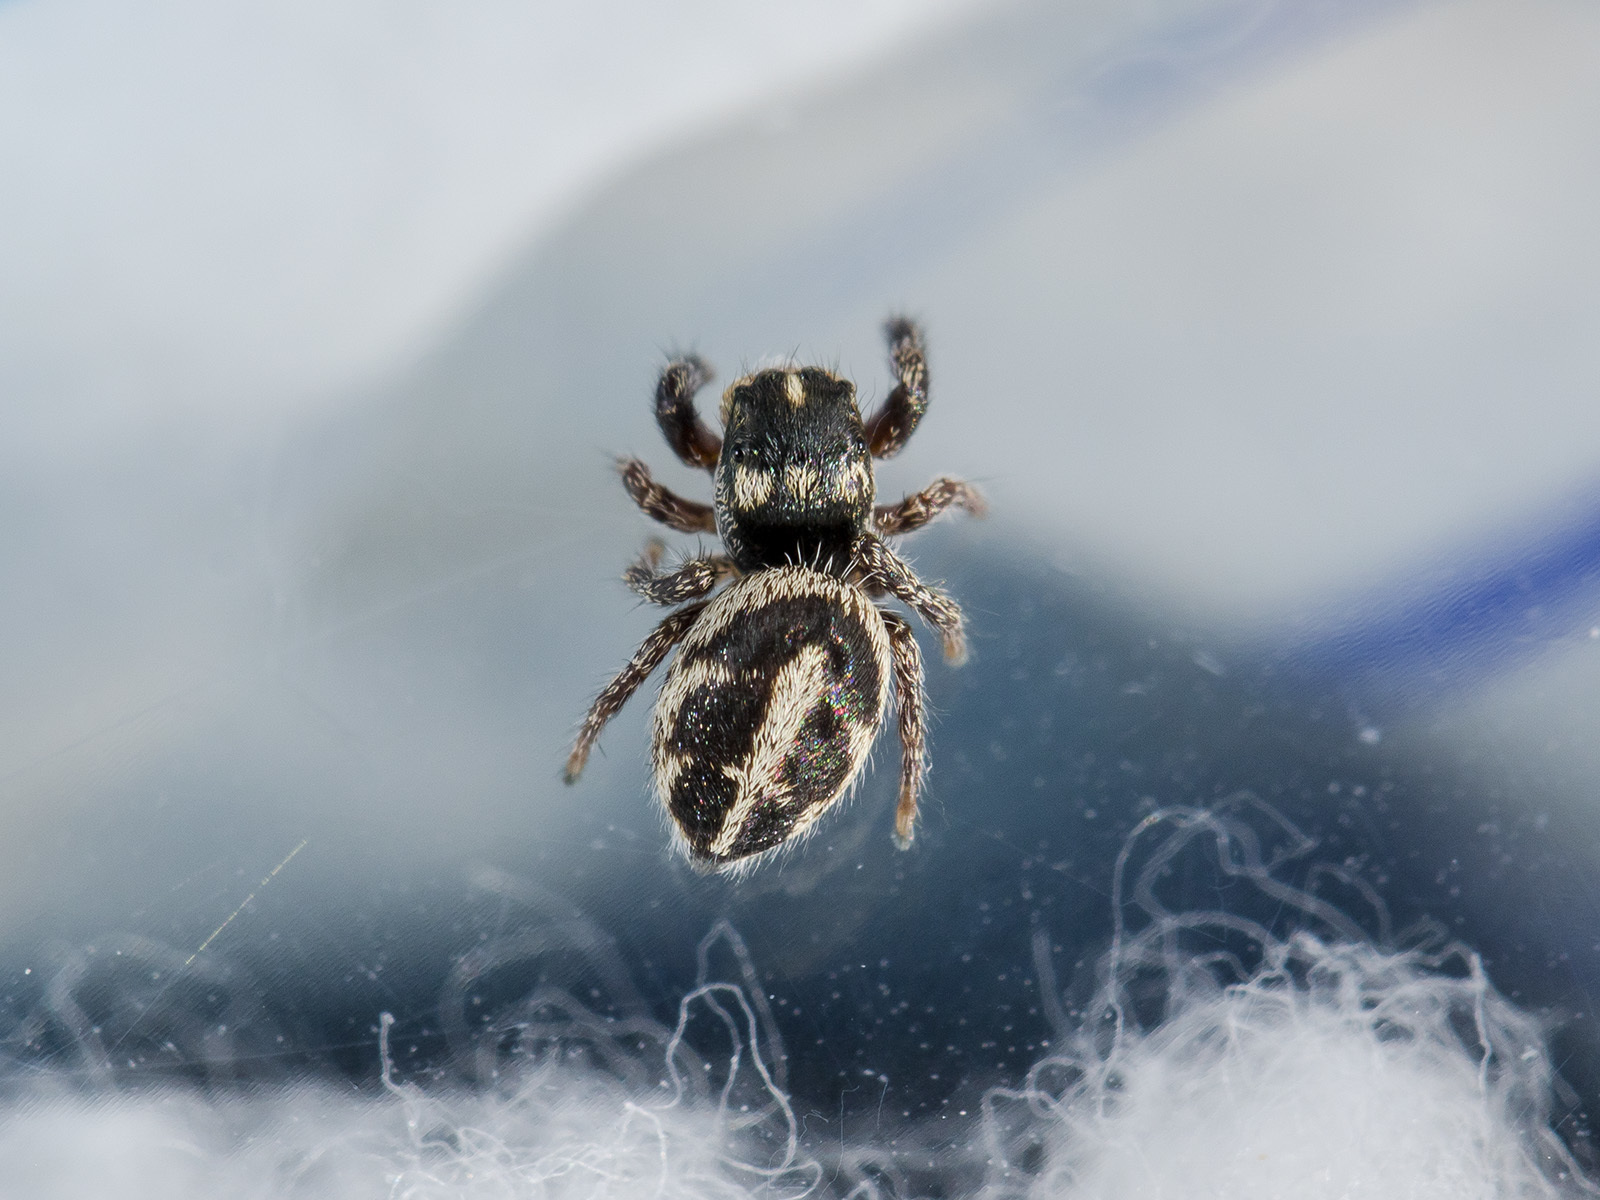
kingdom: Animalia
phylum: Arthropoda
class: Arachnida
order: Araneae
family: Salticidae
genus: Pellenes
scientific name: Pellenes allegrii
